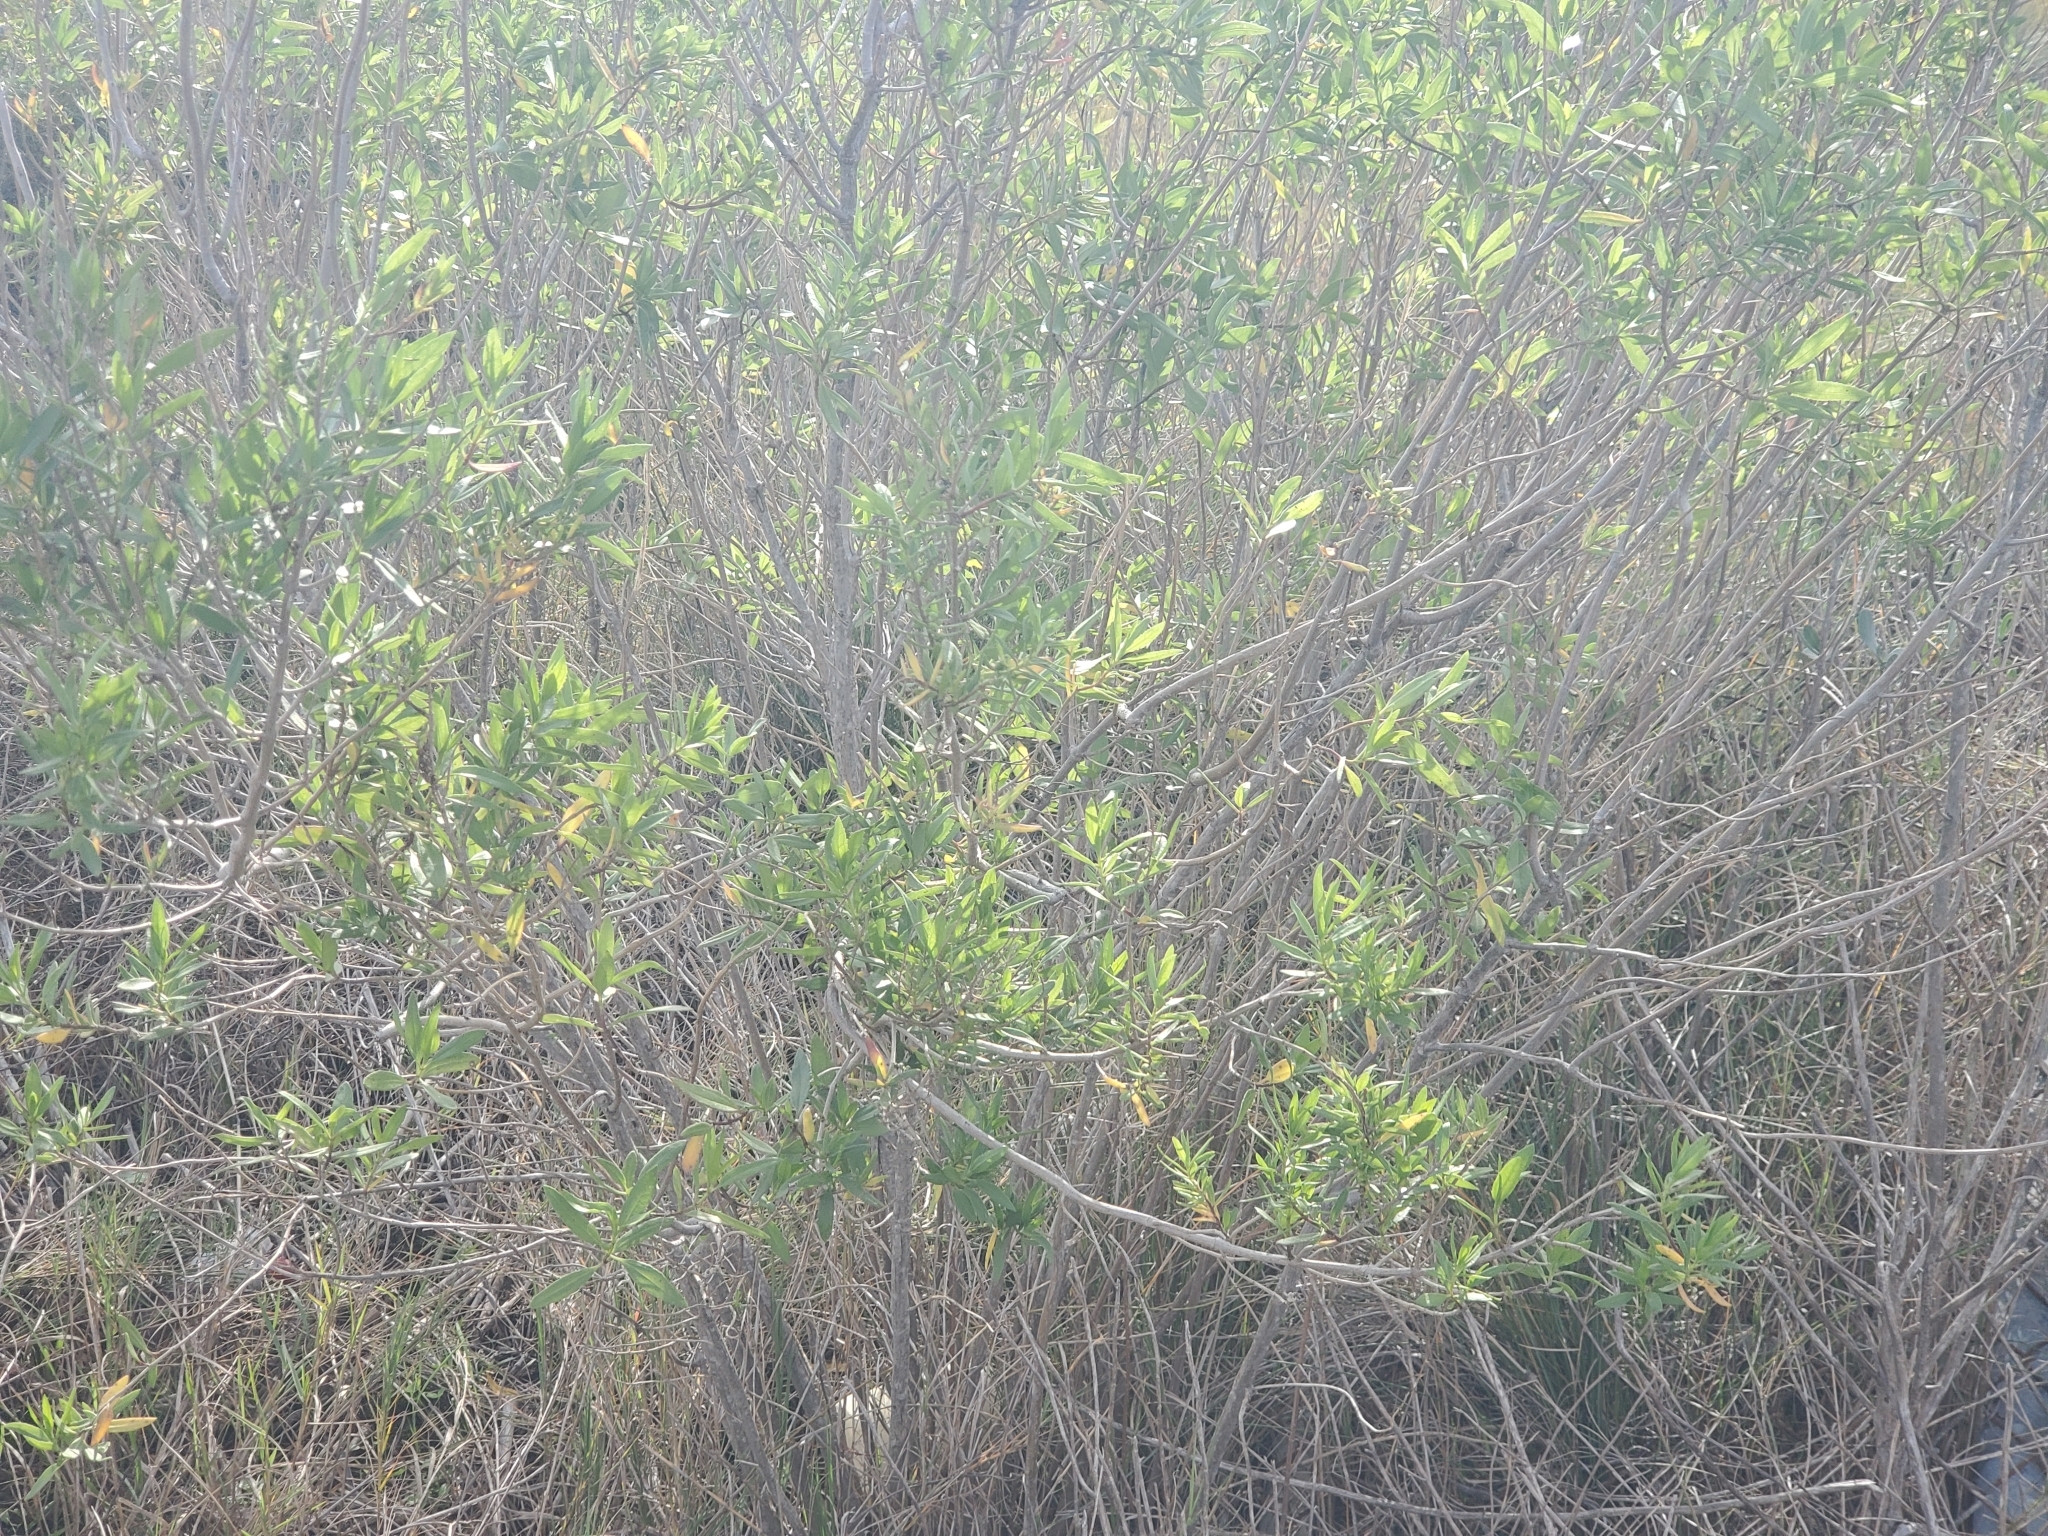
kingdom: Plantae
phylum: Tracheophyta
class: Magnoliopsida
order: Asterales
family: Asteraceae
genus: Iva
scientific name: Iva frutescens
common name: Big-leaved marsh-elder
